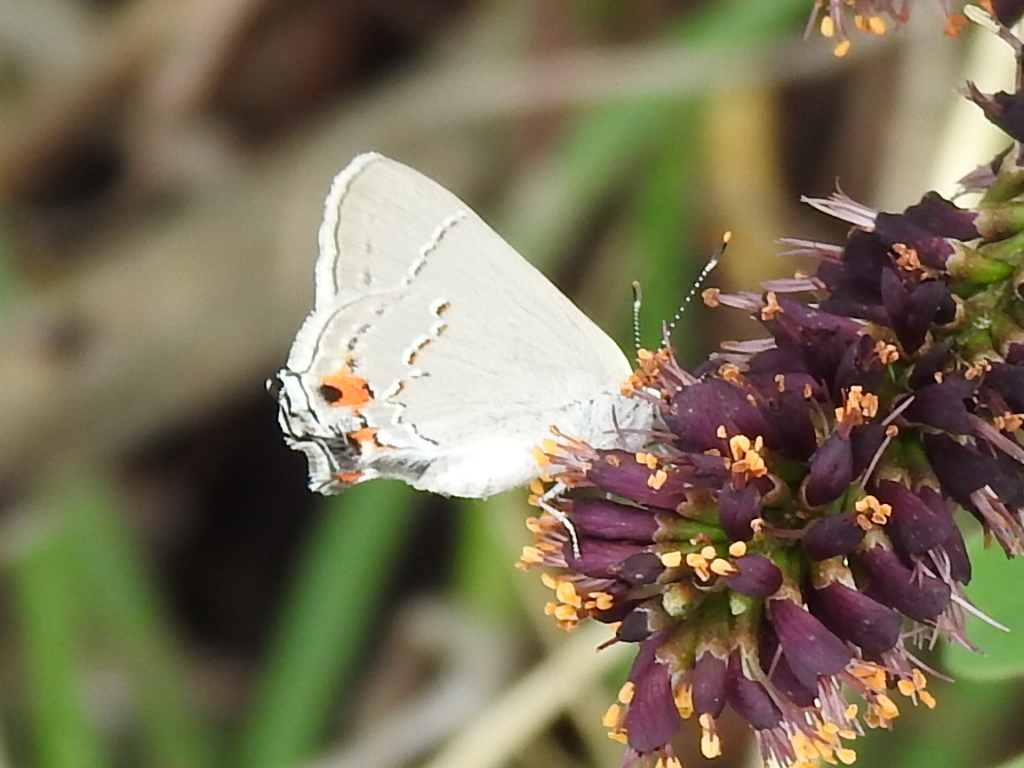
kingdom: Animalia
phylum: Arthropoda
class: Insecta
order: Lepidoptera
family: Lycaenidae
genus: Strymon
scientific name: Strymon melinus
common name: Gray hairstreak
